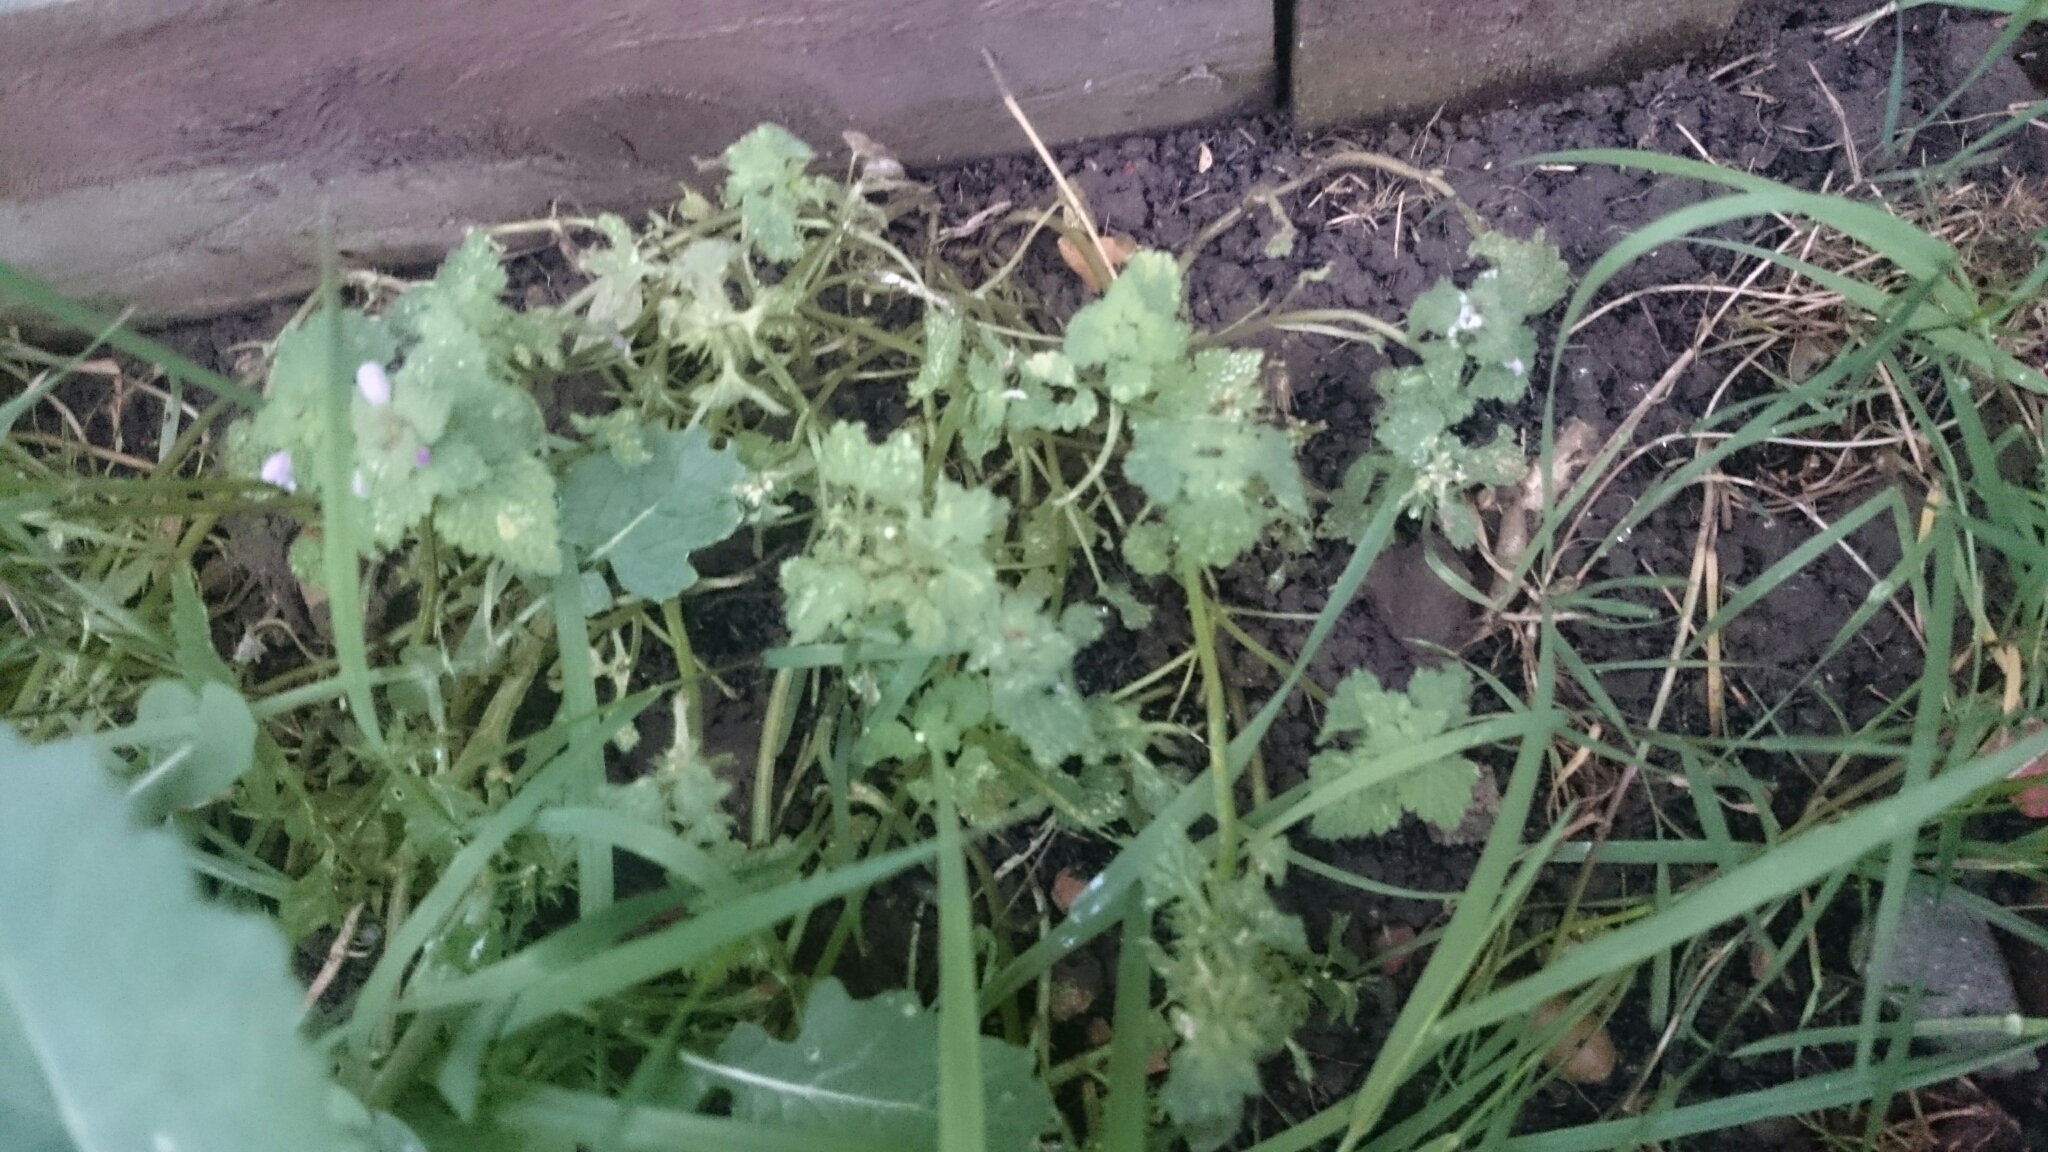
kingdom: Plantae
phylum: Tracheophyta
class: Magnoliopsida
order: Lamiales
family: Lamiaceae
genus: Lamium
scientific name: Lamium purpureum
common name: Red dead-nettle
